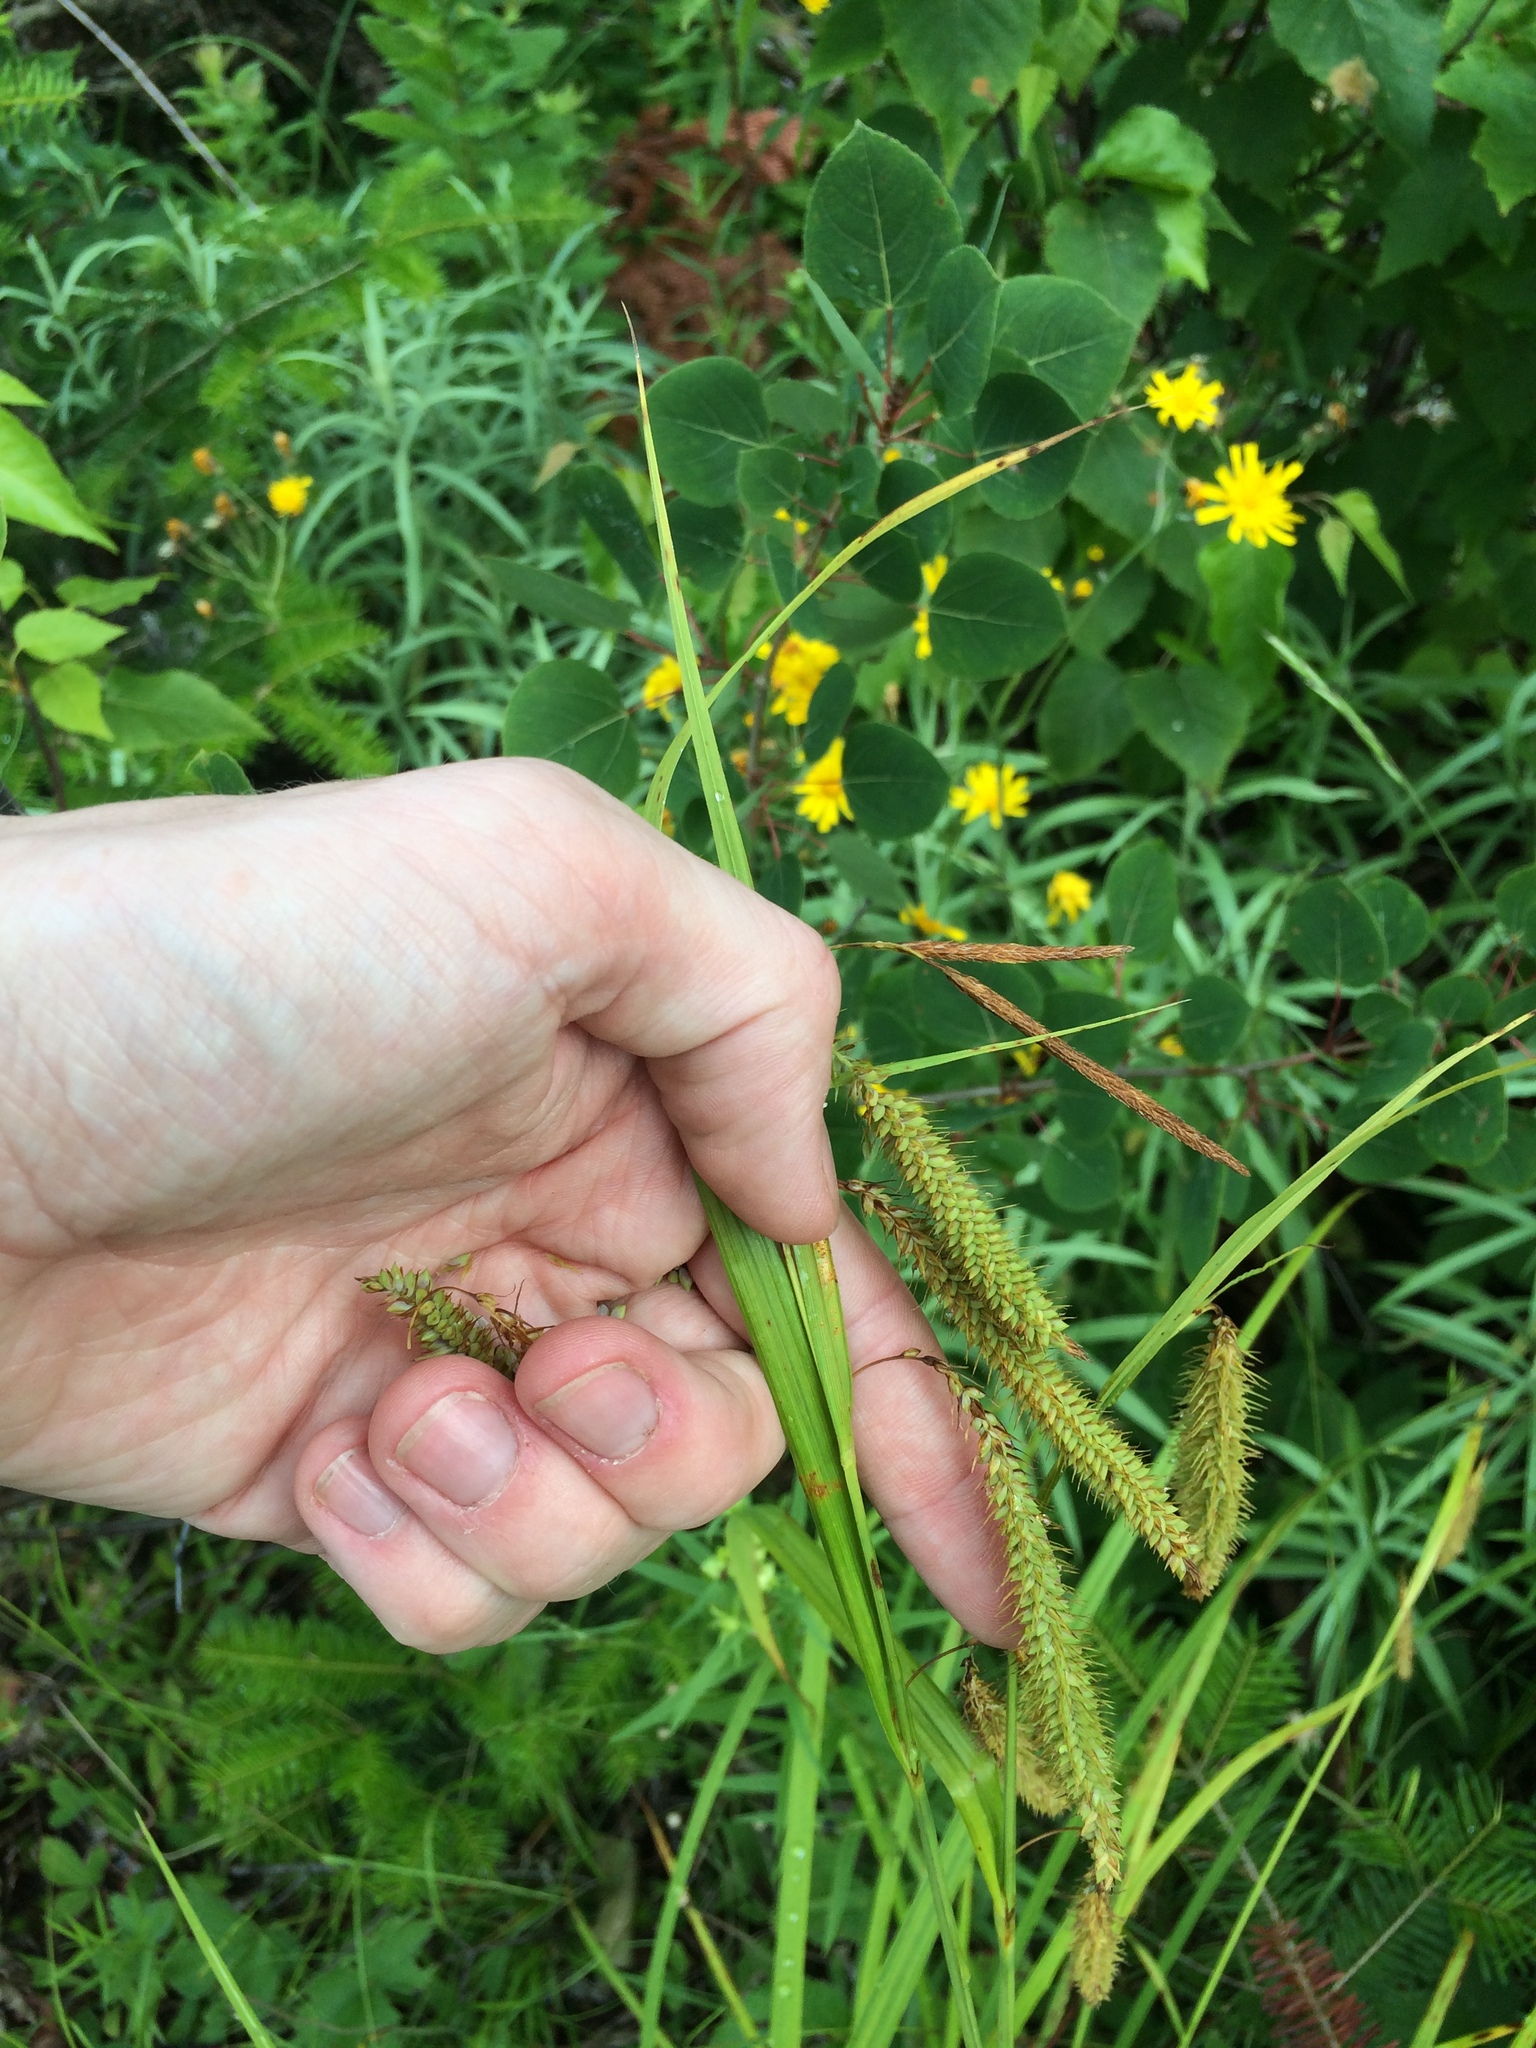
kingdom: Plantae
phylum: Tracheophyta
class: Liliopsida
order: Poales
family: Cyperaceae
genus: Carex
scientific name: Carex gynandra
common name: Nodding sedge
